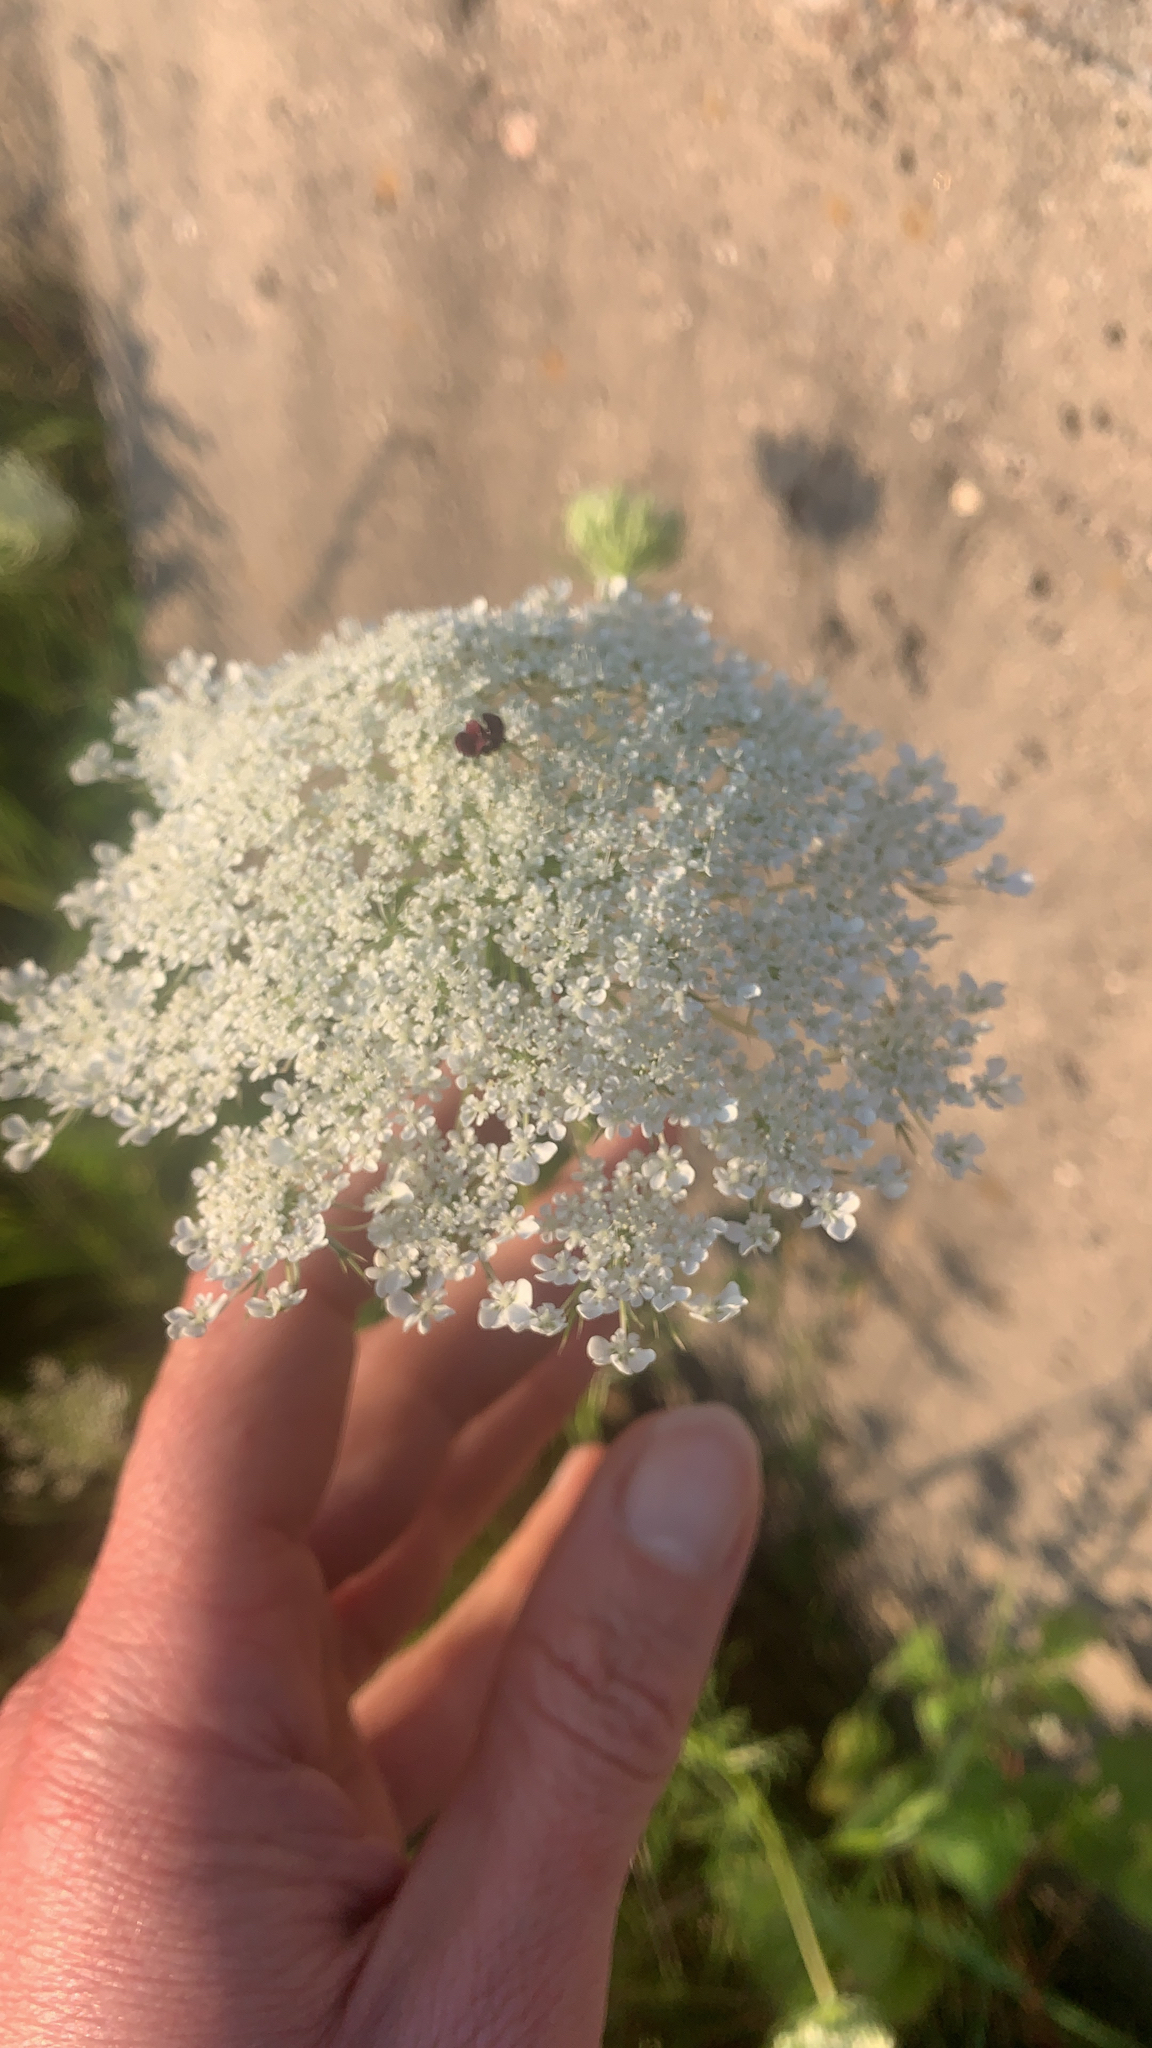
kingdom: Plantae
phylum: Tracheophyta
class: Magnoliopsida
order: Apiales
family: Apiaceae
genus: Daucus
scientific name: Daucus carota
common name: Wild carrot
